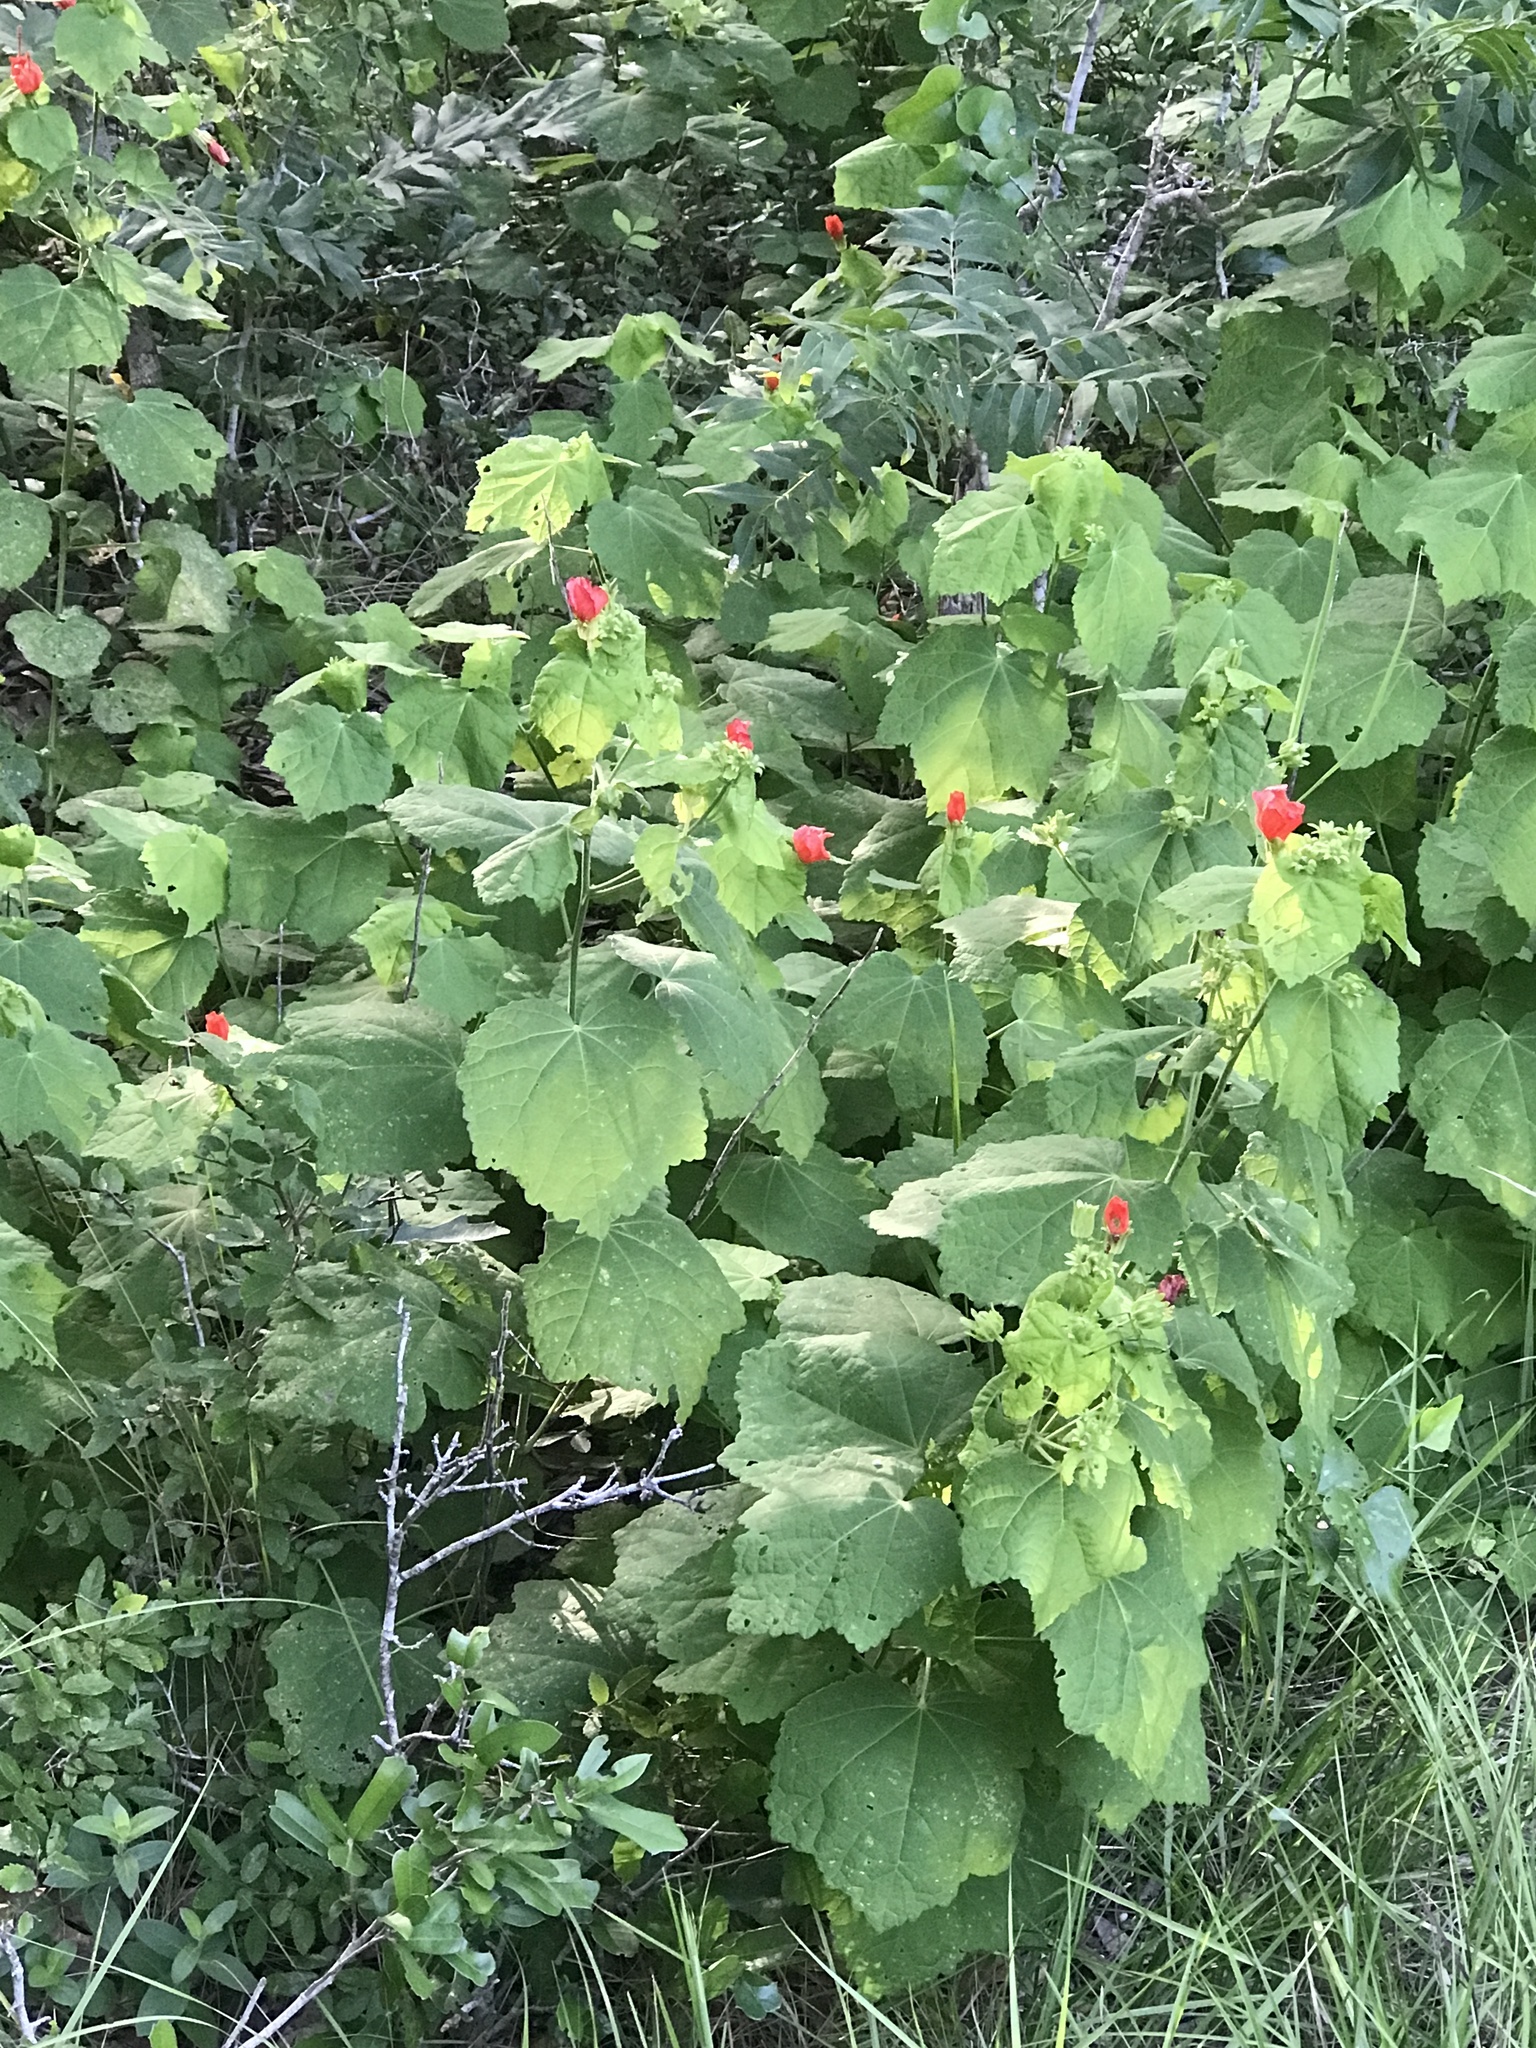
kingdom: Plantae
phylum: Tracheophyta
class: Magnoliopsida
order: Malvales
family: Malvaceae
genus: Malvaviscus
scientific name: Malvaviscus arboreus
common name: Wax mallow
